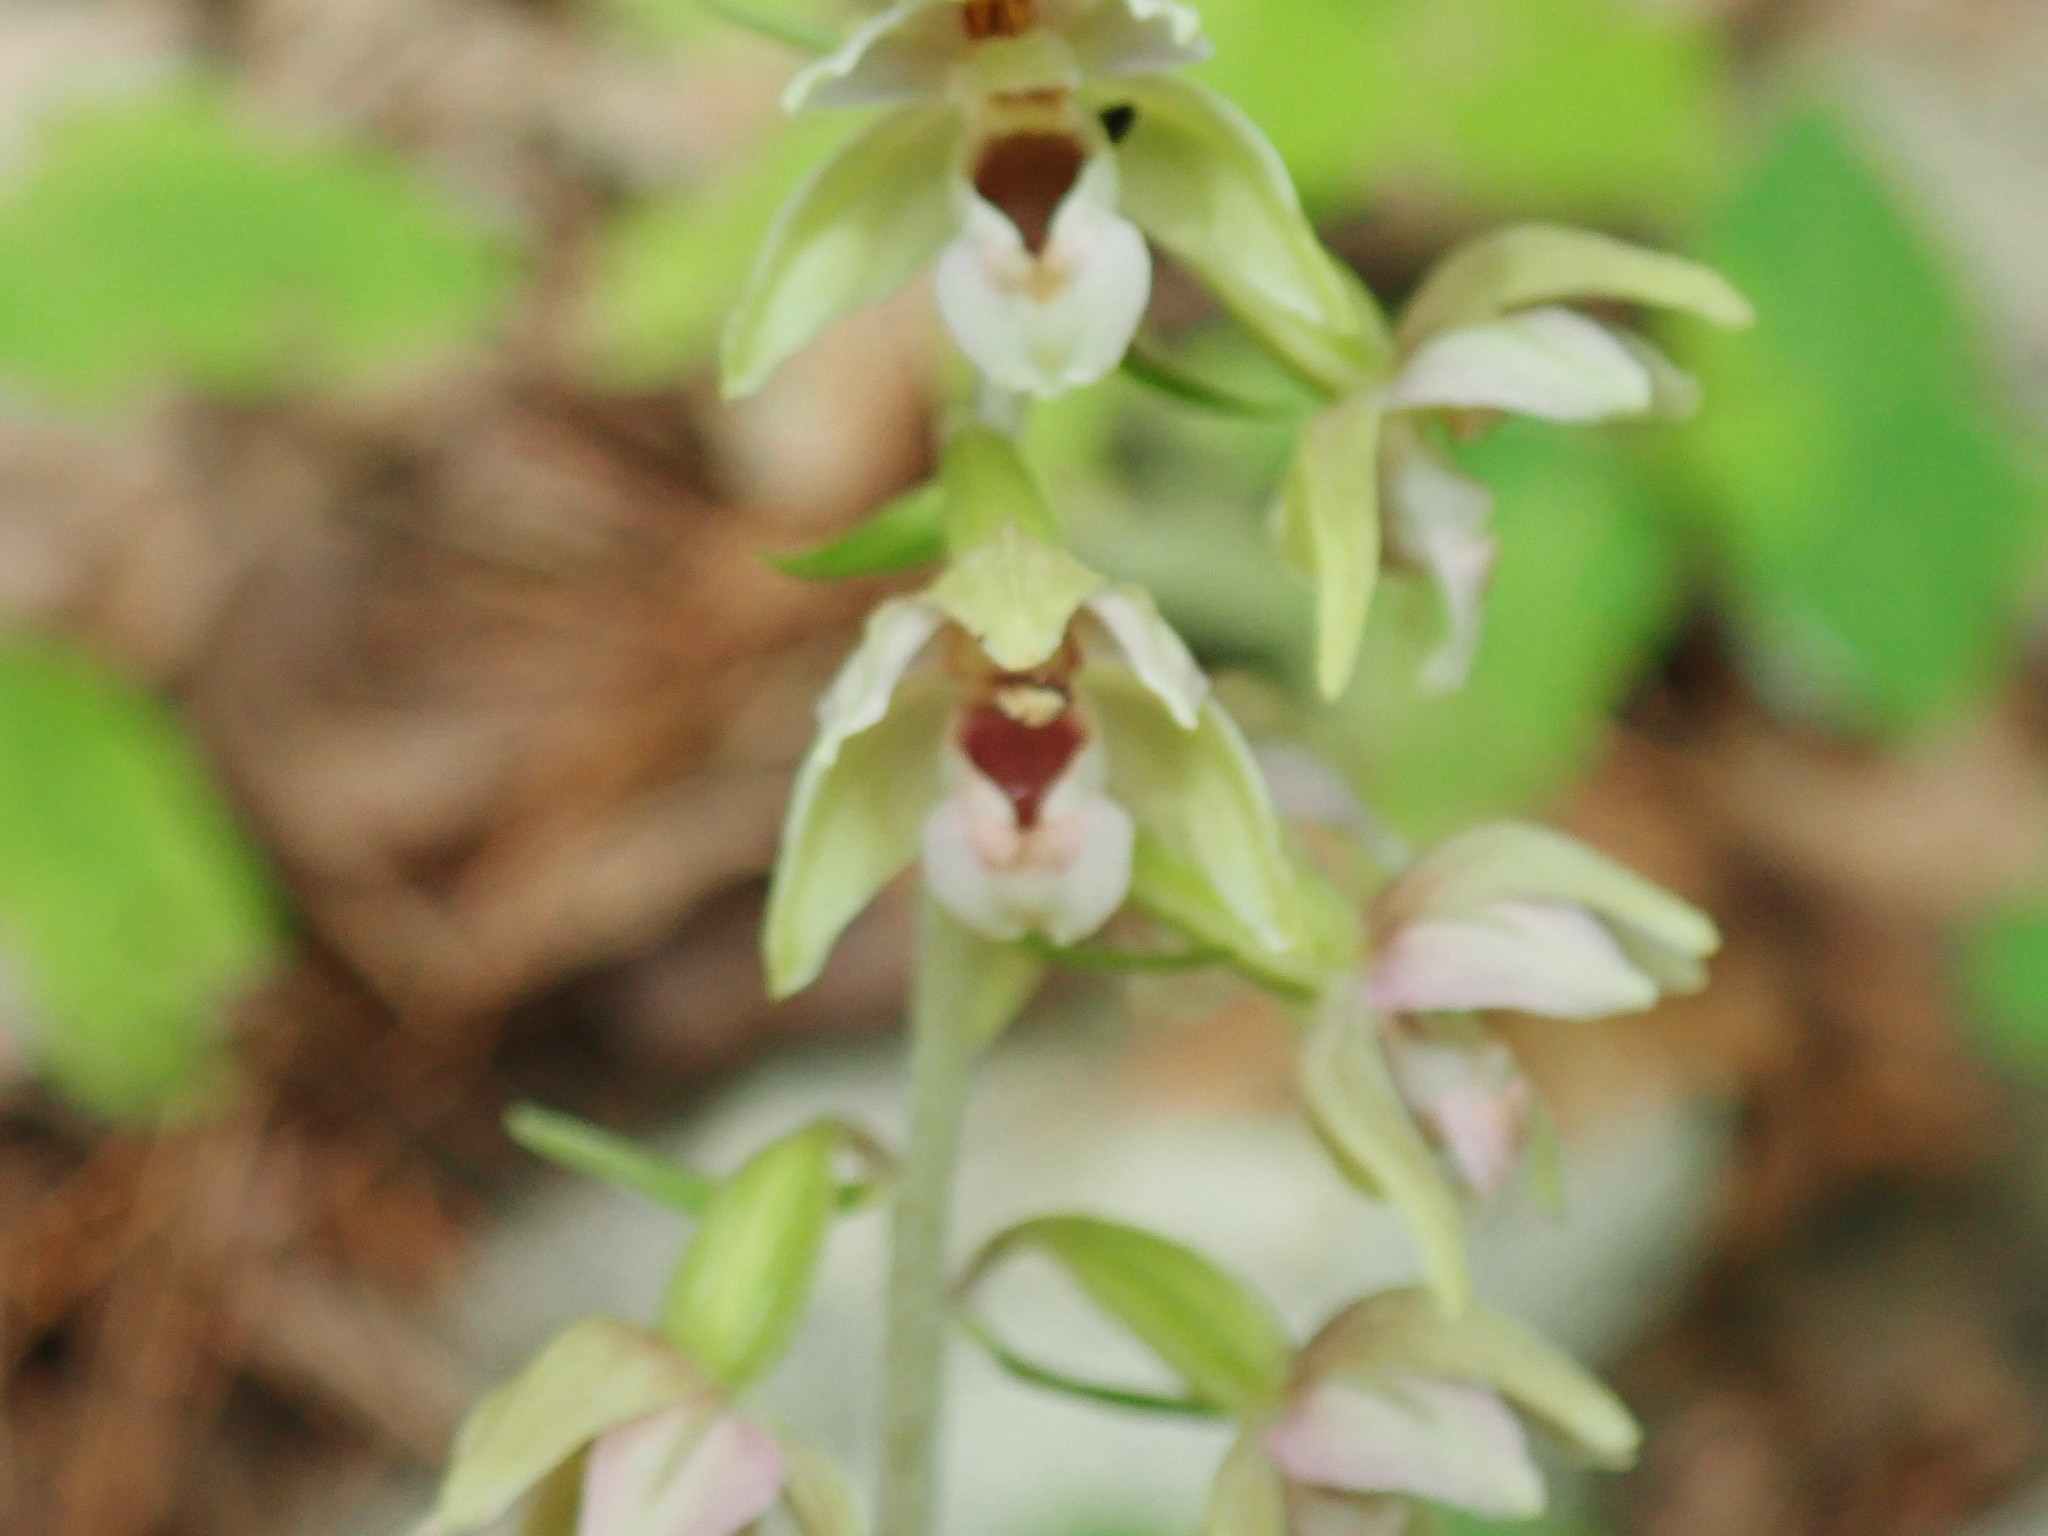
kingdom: Plantae
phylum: Tracheophyta
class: Liliopsida
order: Asparagales
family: Orchidaceae
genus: Epipactis
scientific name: Epipactis helleborine
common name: Broad-leaved helleborine
